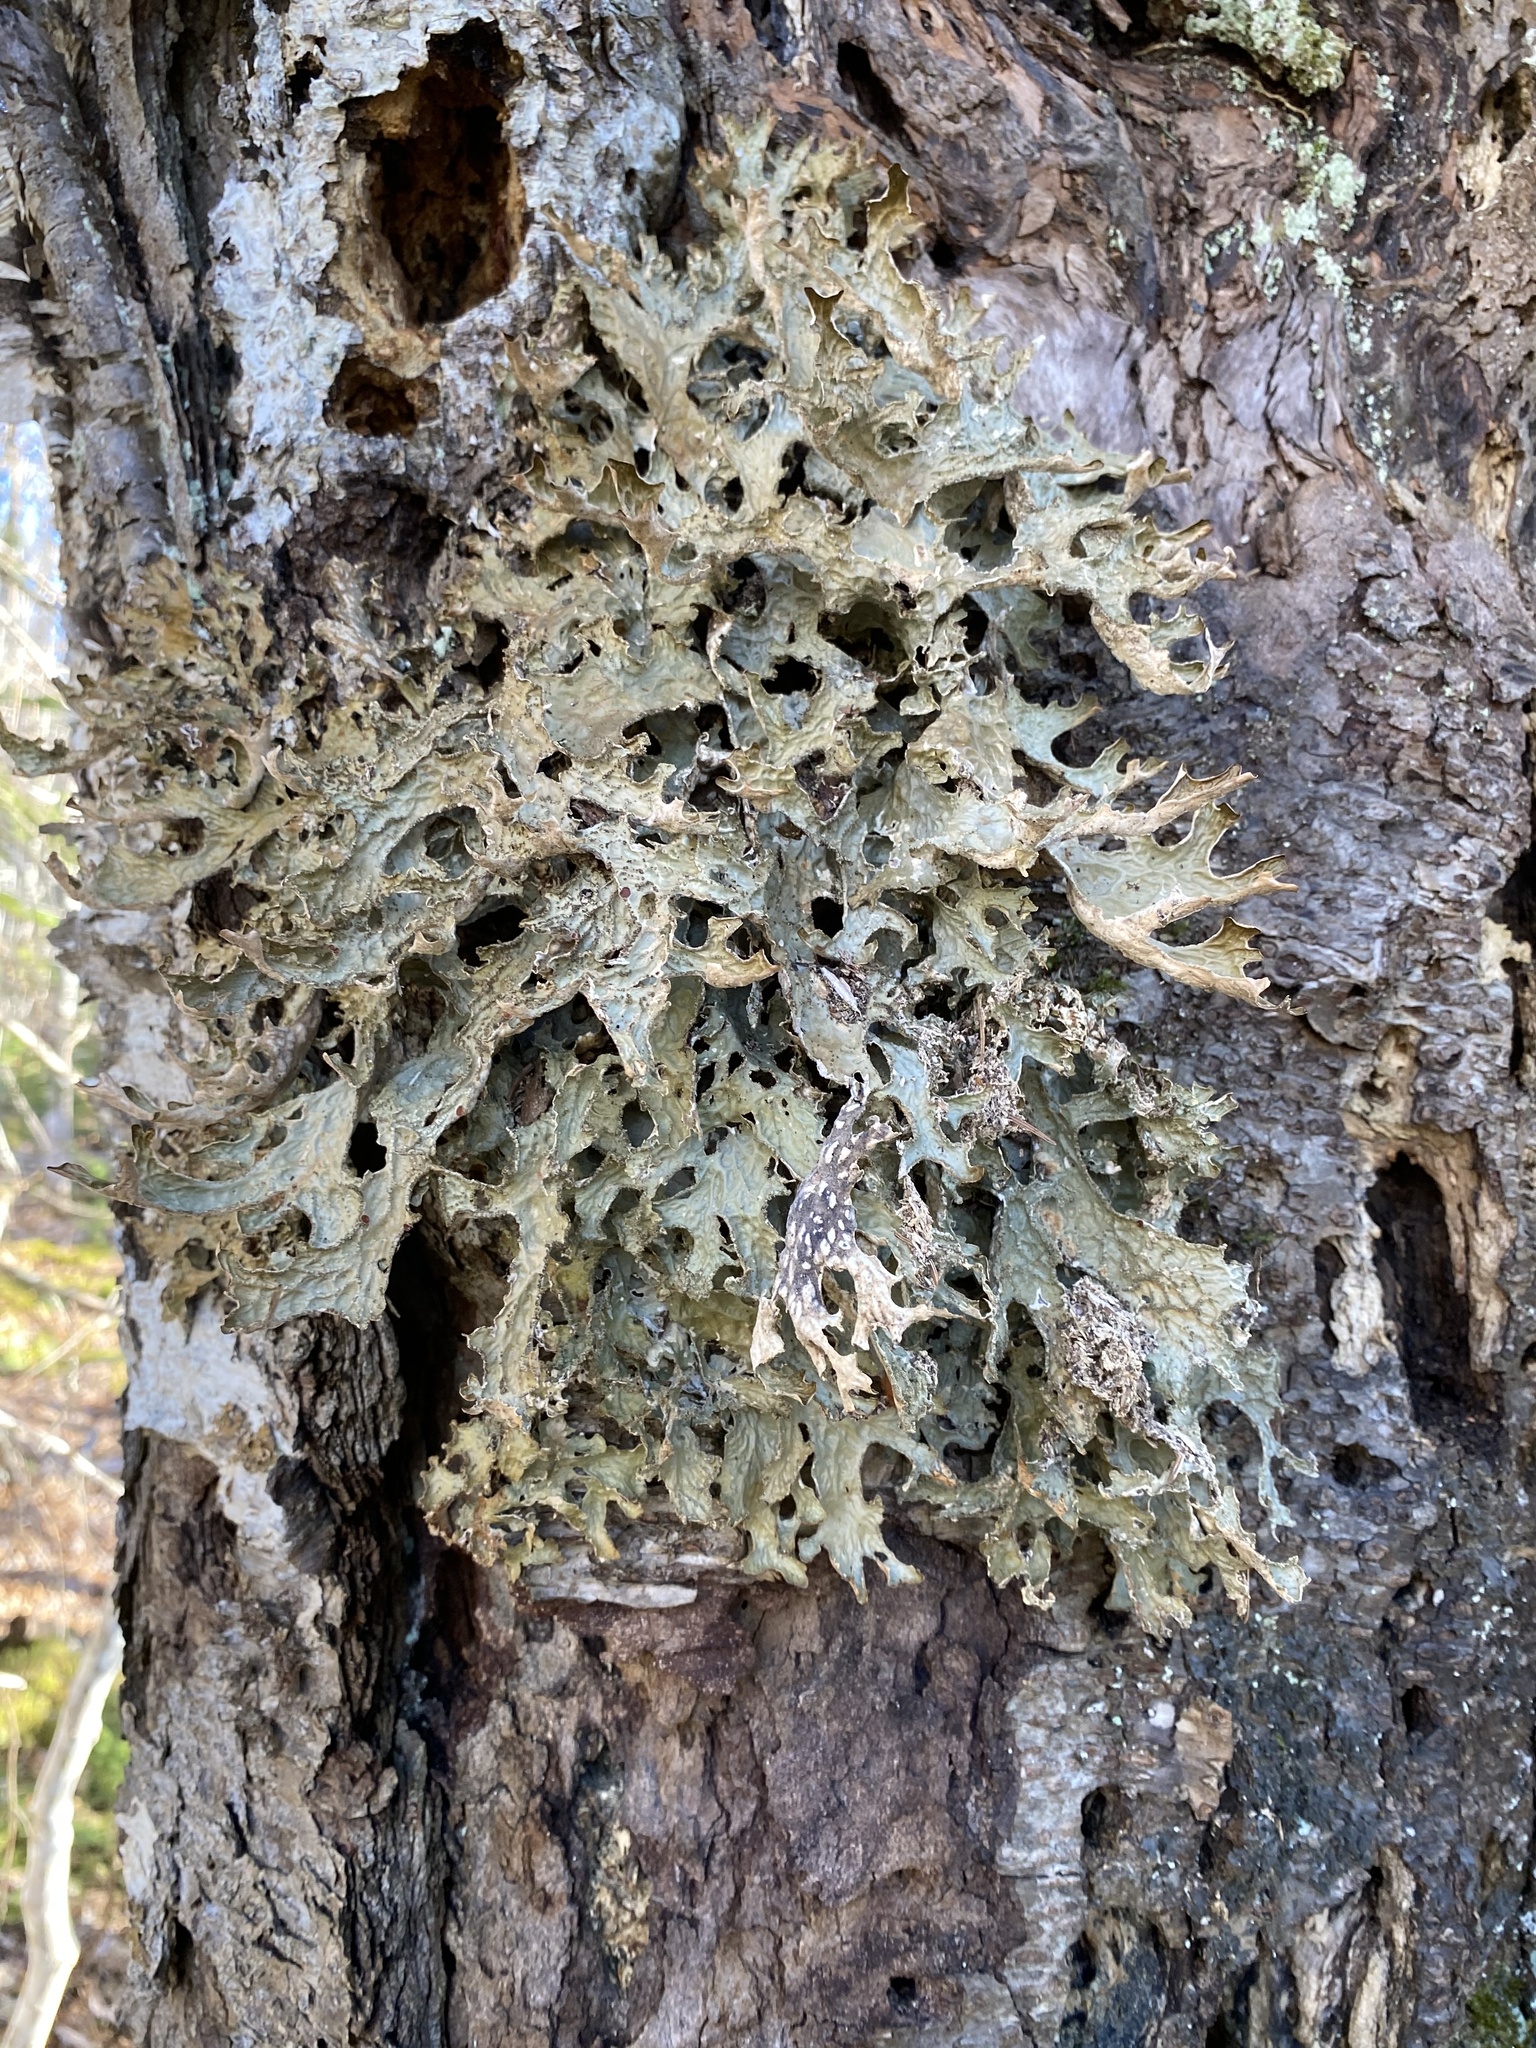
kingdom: Fungi
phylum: Ascomycota
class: Lecanoromycetes
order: Peltigerales
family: Lobariaceae
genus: Lobaria
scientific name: Lobaria pulmonaria
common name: Lungwort
